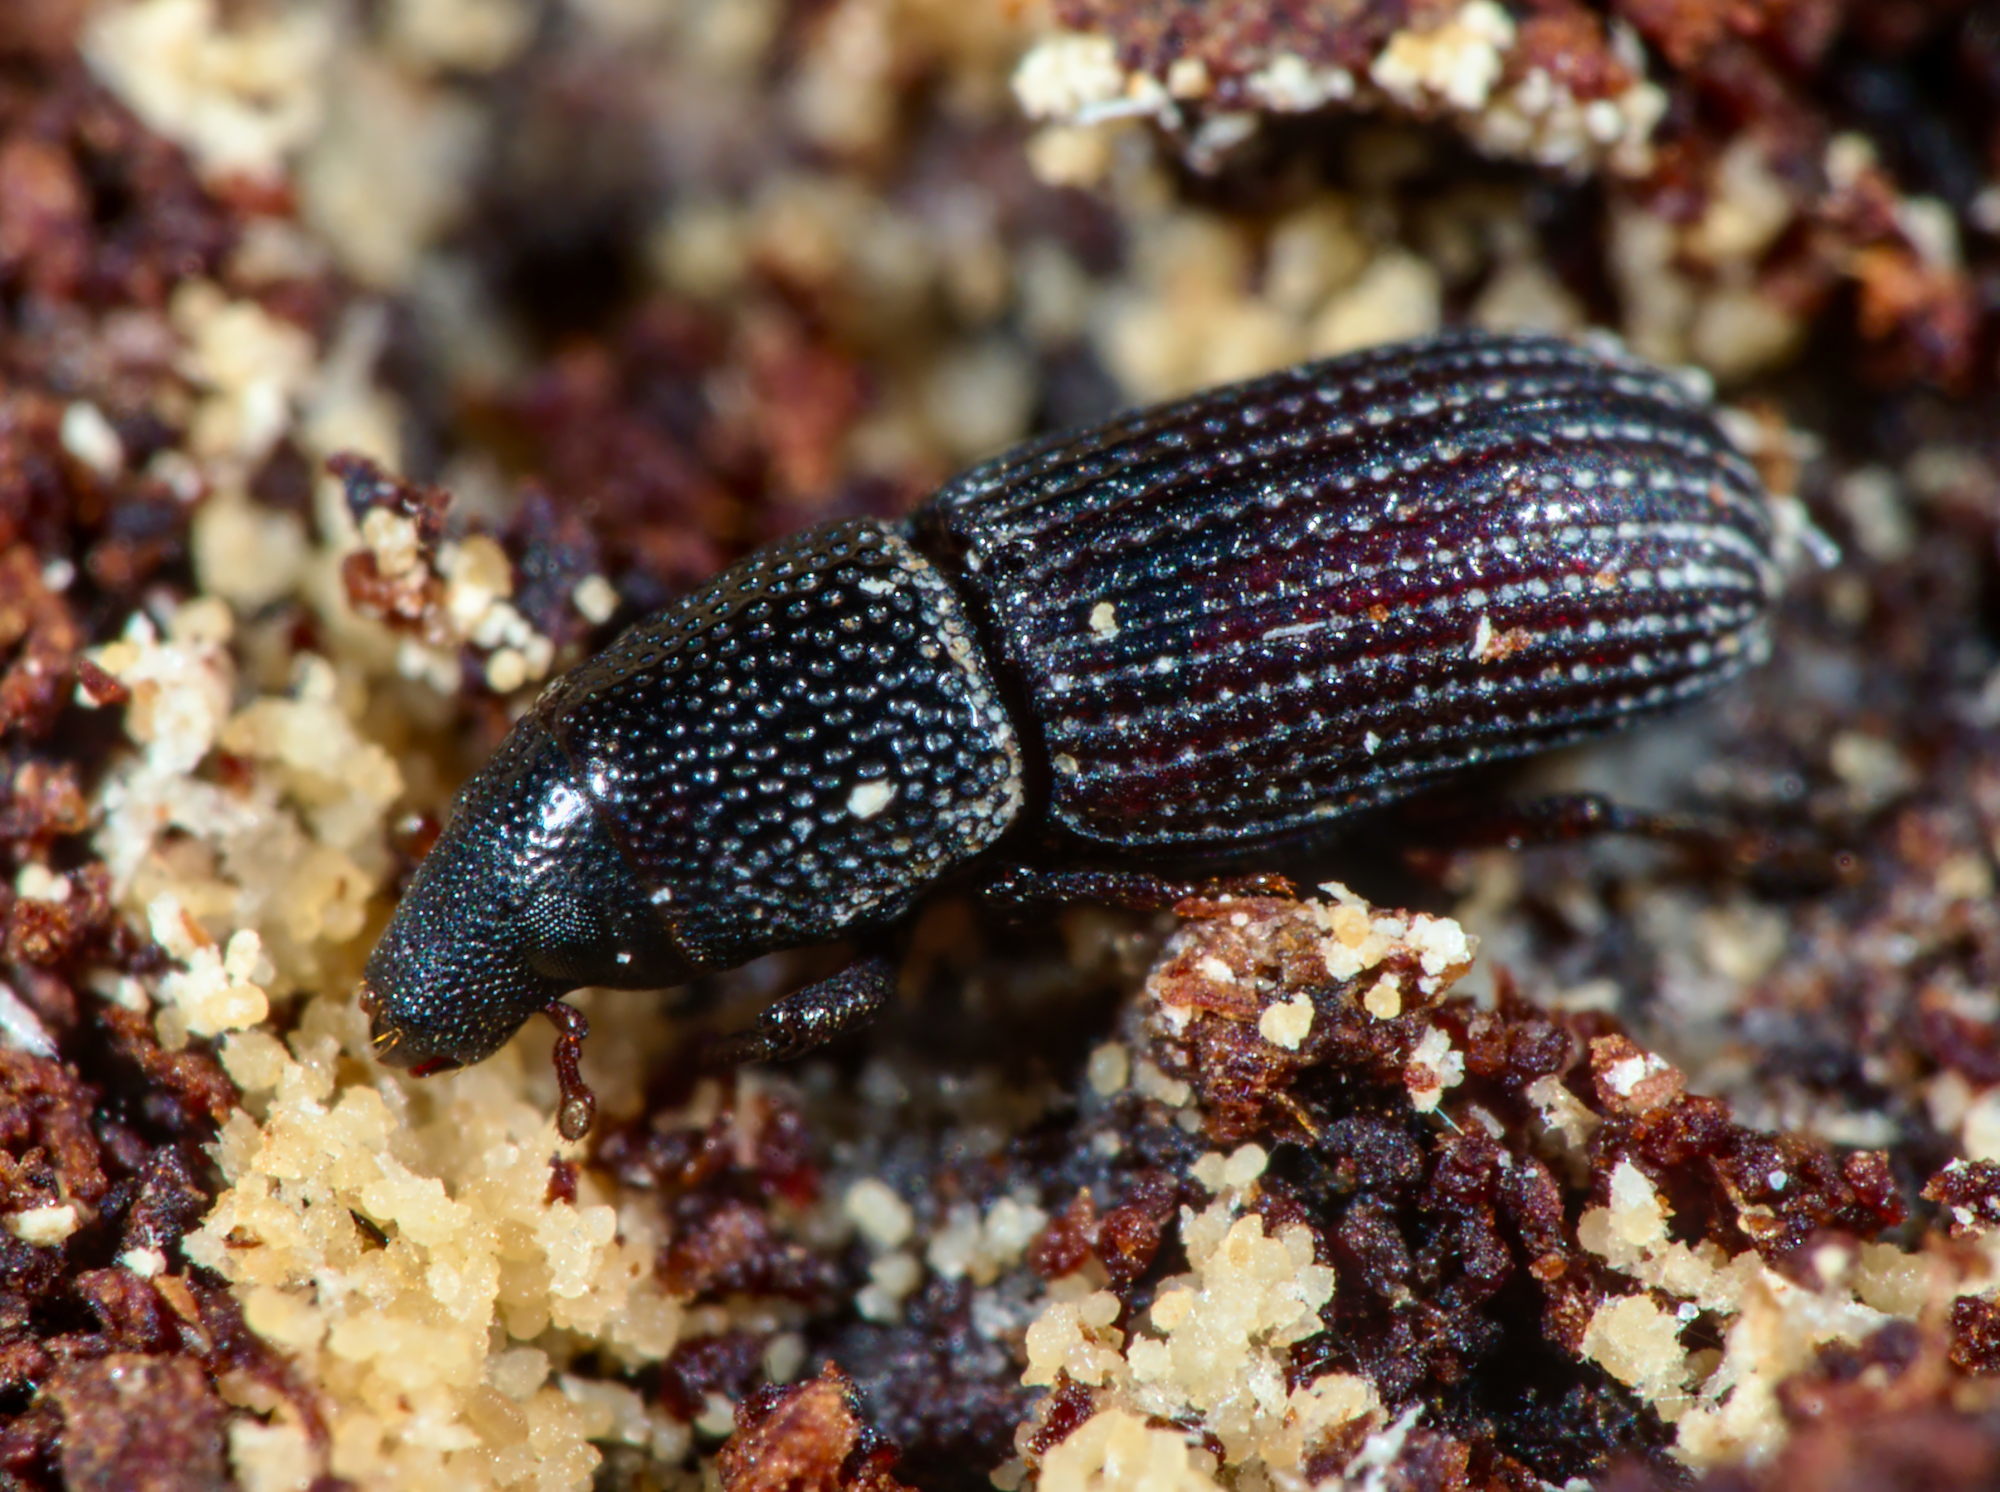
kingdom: Animalia
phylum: Arthropoda
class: Insecta
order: Coleoptera
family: Curculionidae
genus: Brachytemnus
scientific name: Brachytemnus porcatus
